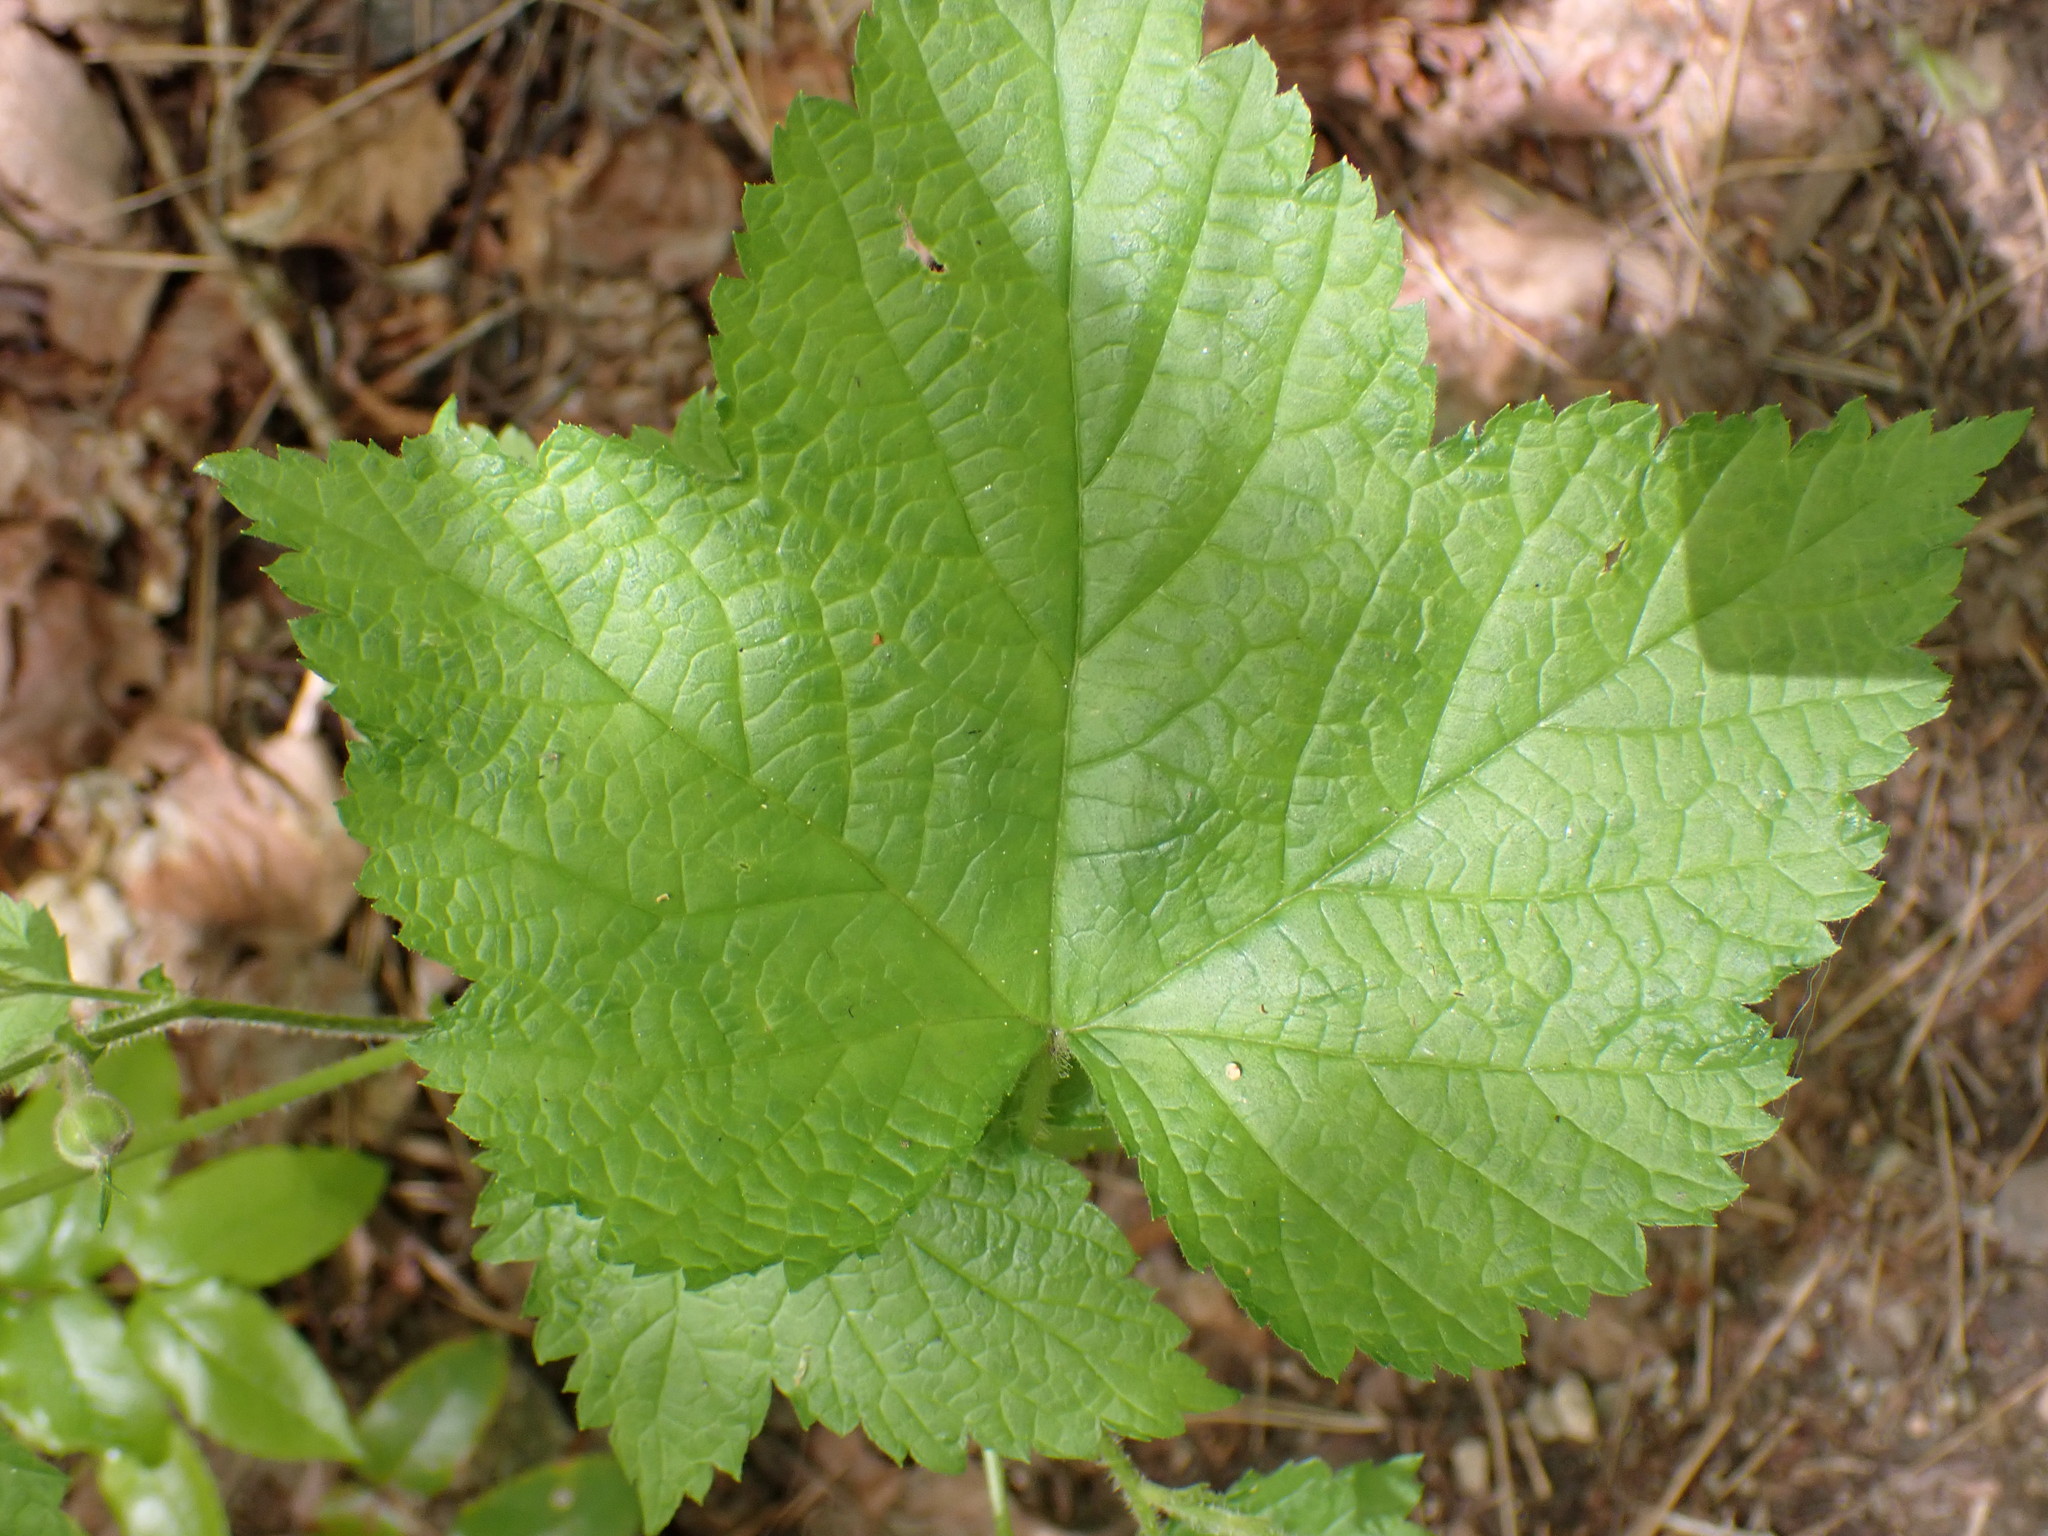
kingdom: Plantae
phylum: Tracheophyta
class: Magnoliopsida
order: Rosales
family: Rosaceae
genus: Rubus
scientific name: Rubus parviflorus
